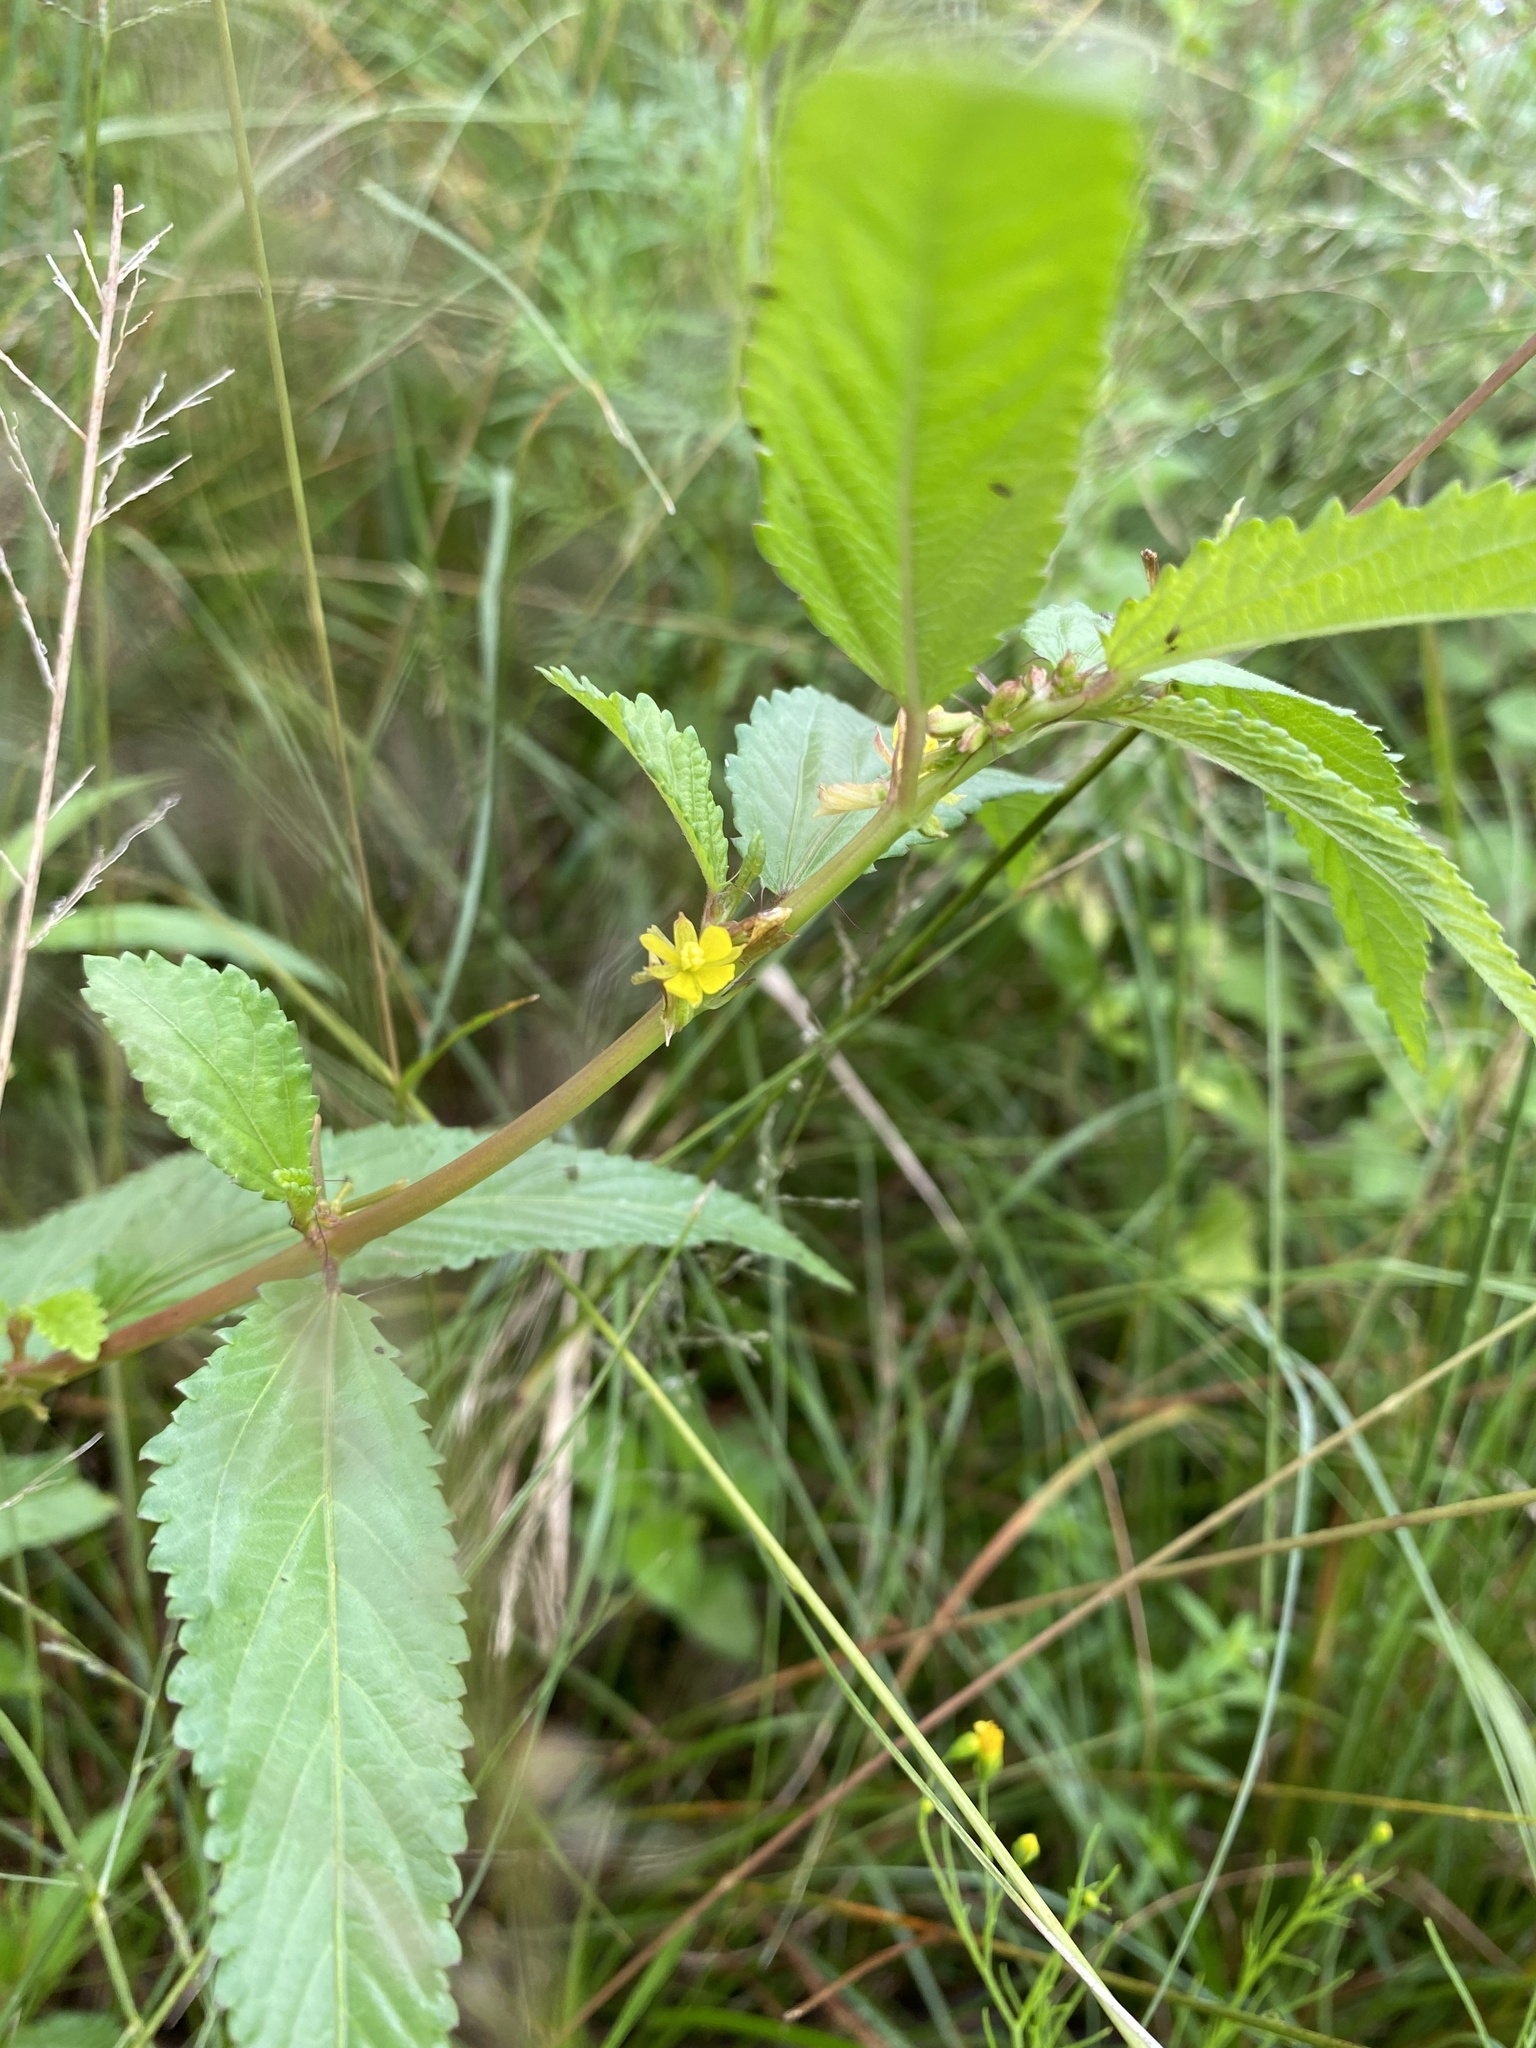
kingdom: Plantae
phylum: Tracheophyta
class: Magnoliopsida
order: Malvales
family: Malvaceae
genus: Corchorus
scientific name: Corchorus tridens
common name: Wild jute
